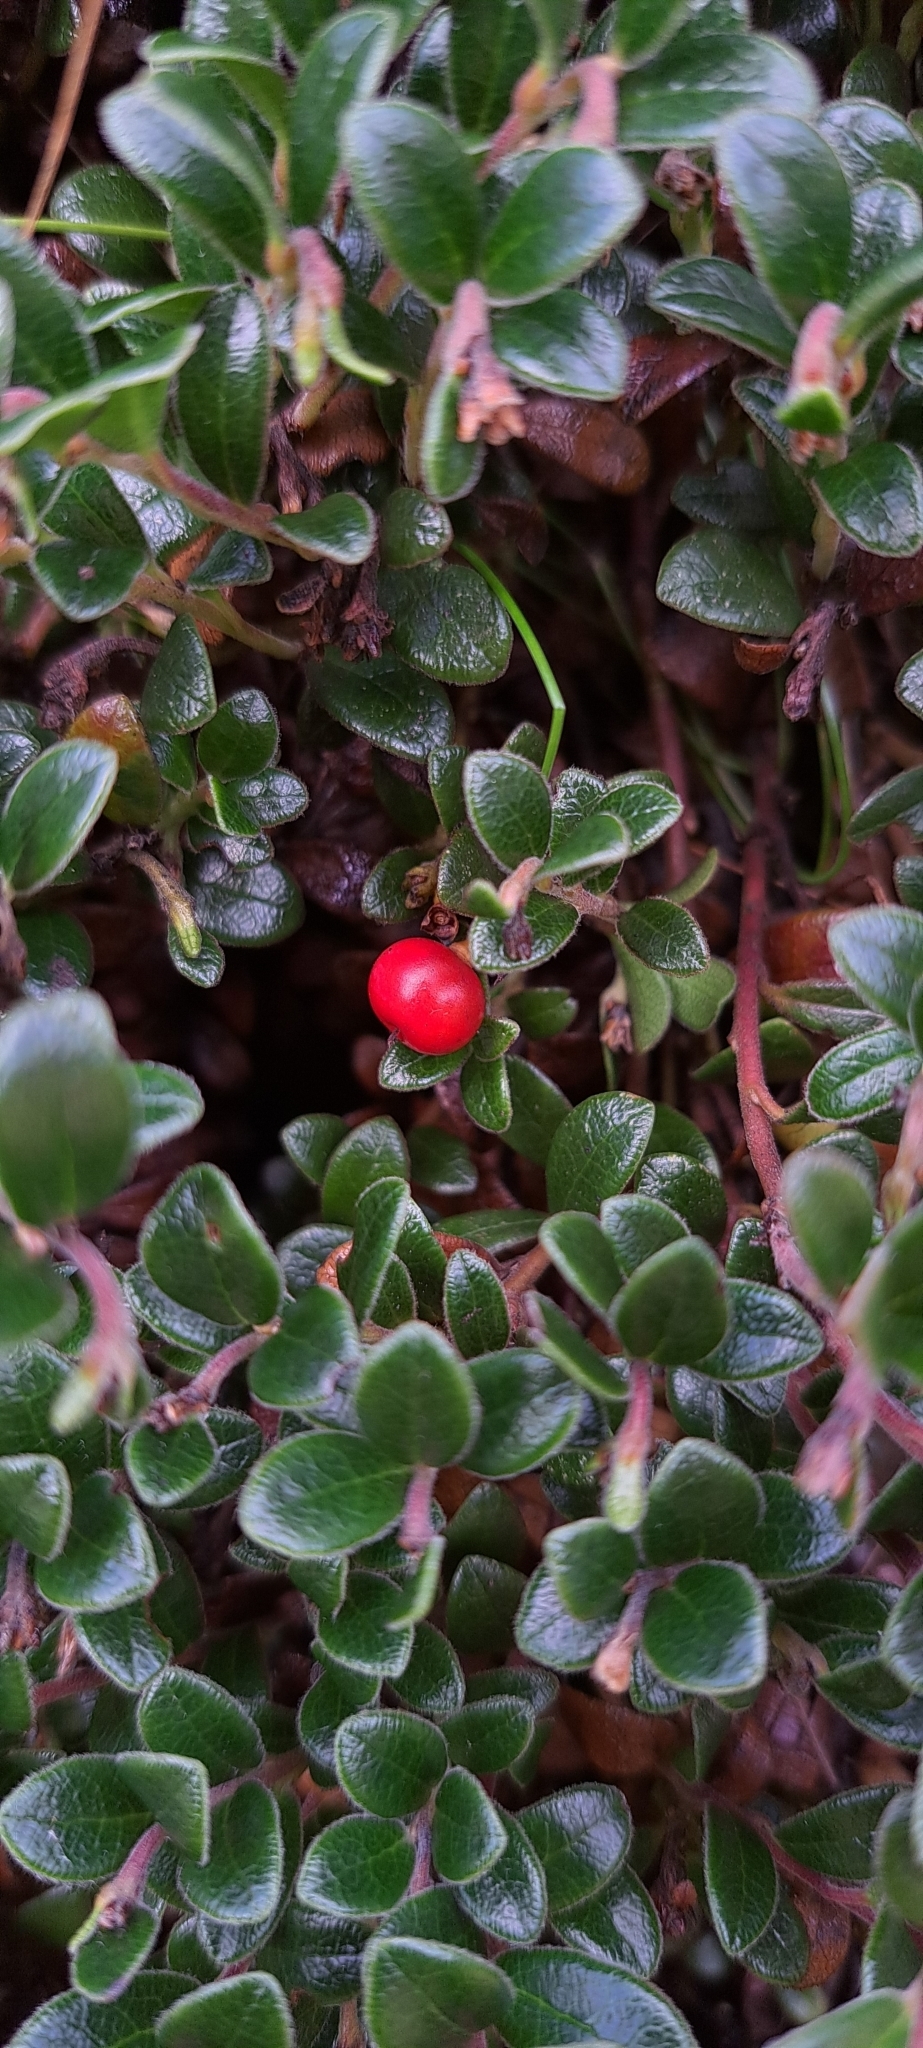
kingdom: Plantae
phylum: Tracheophyta
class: Magnoliopsida
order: Ericales
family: Ericaceae
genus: Arctostaphylos
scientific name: Arctostaphylos uva-ursi
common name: Bearberry
